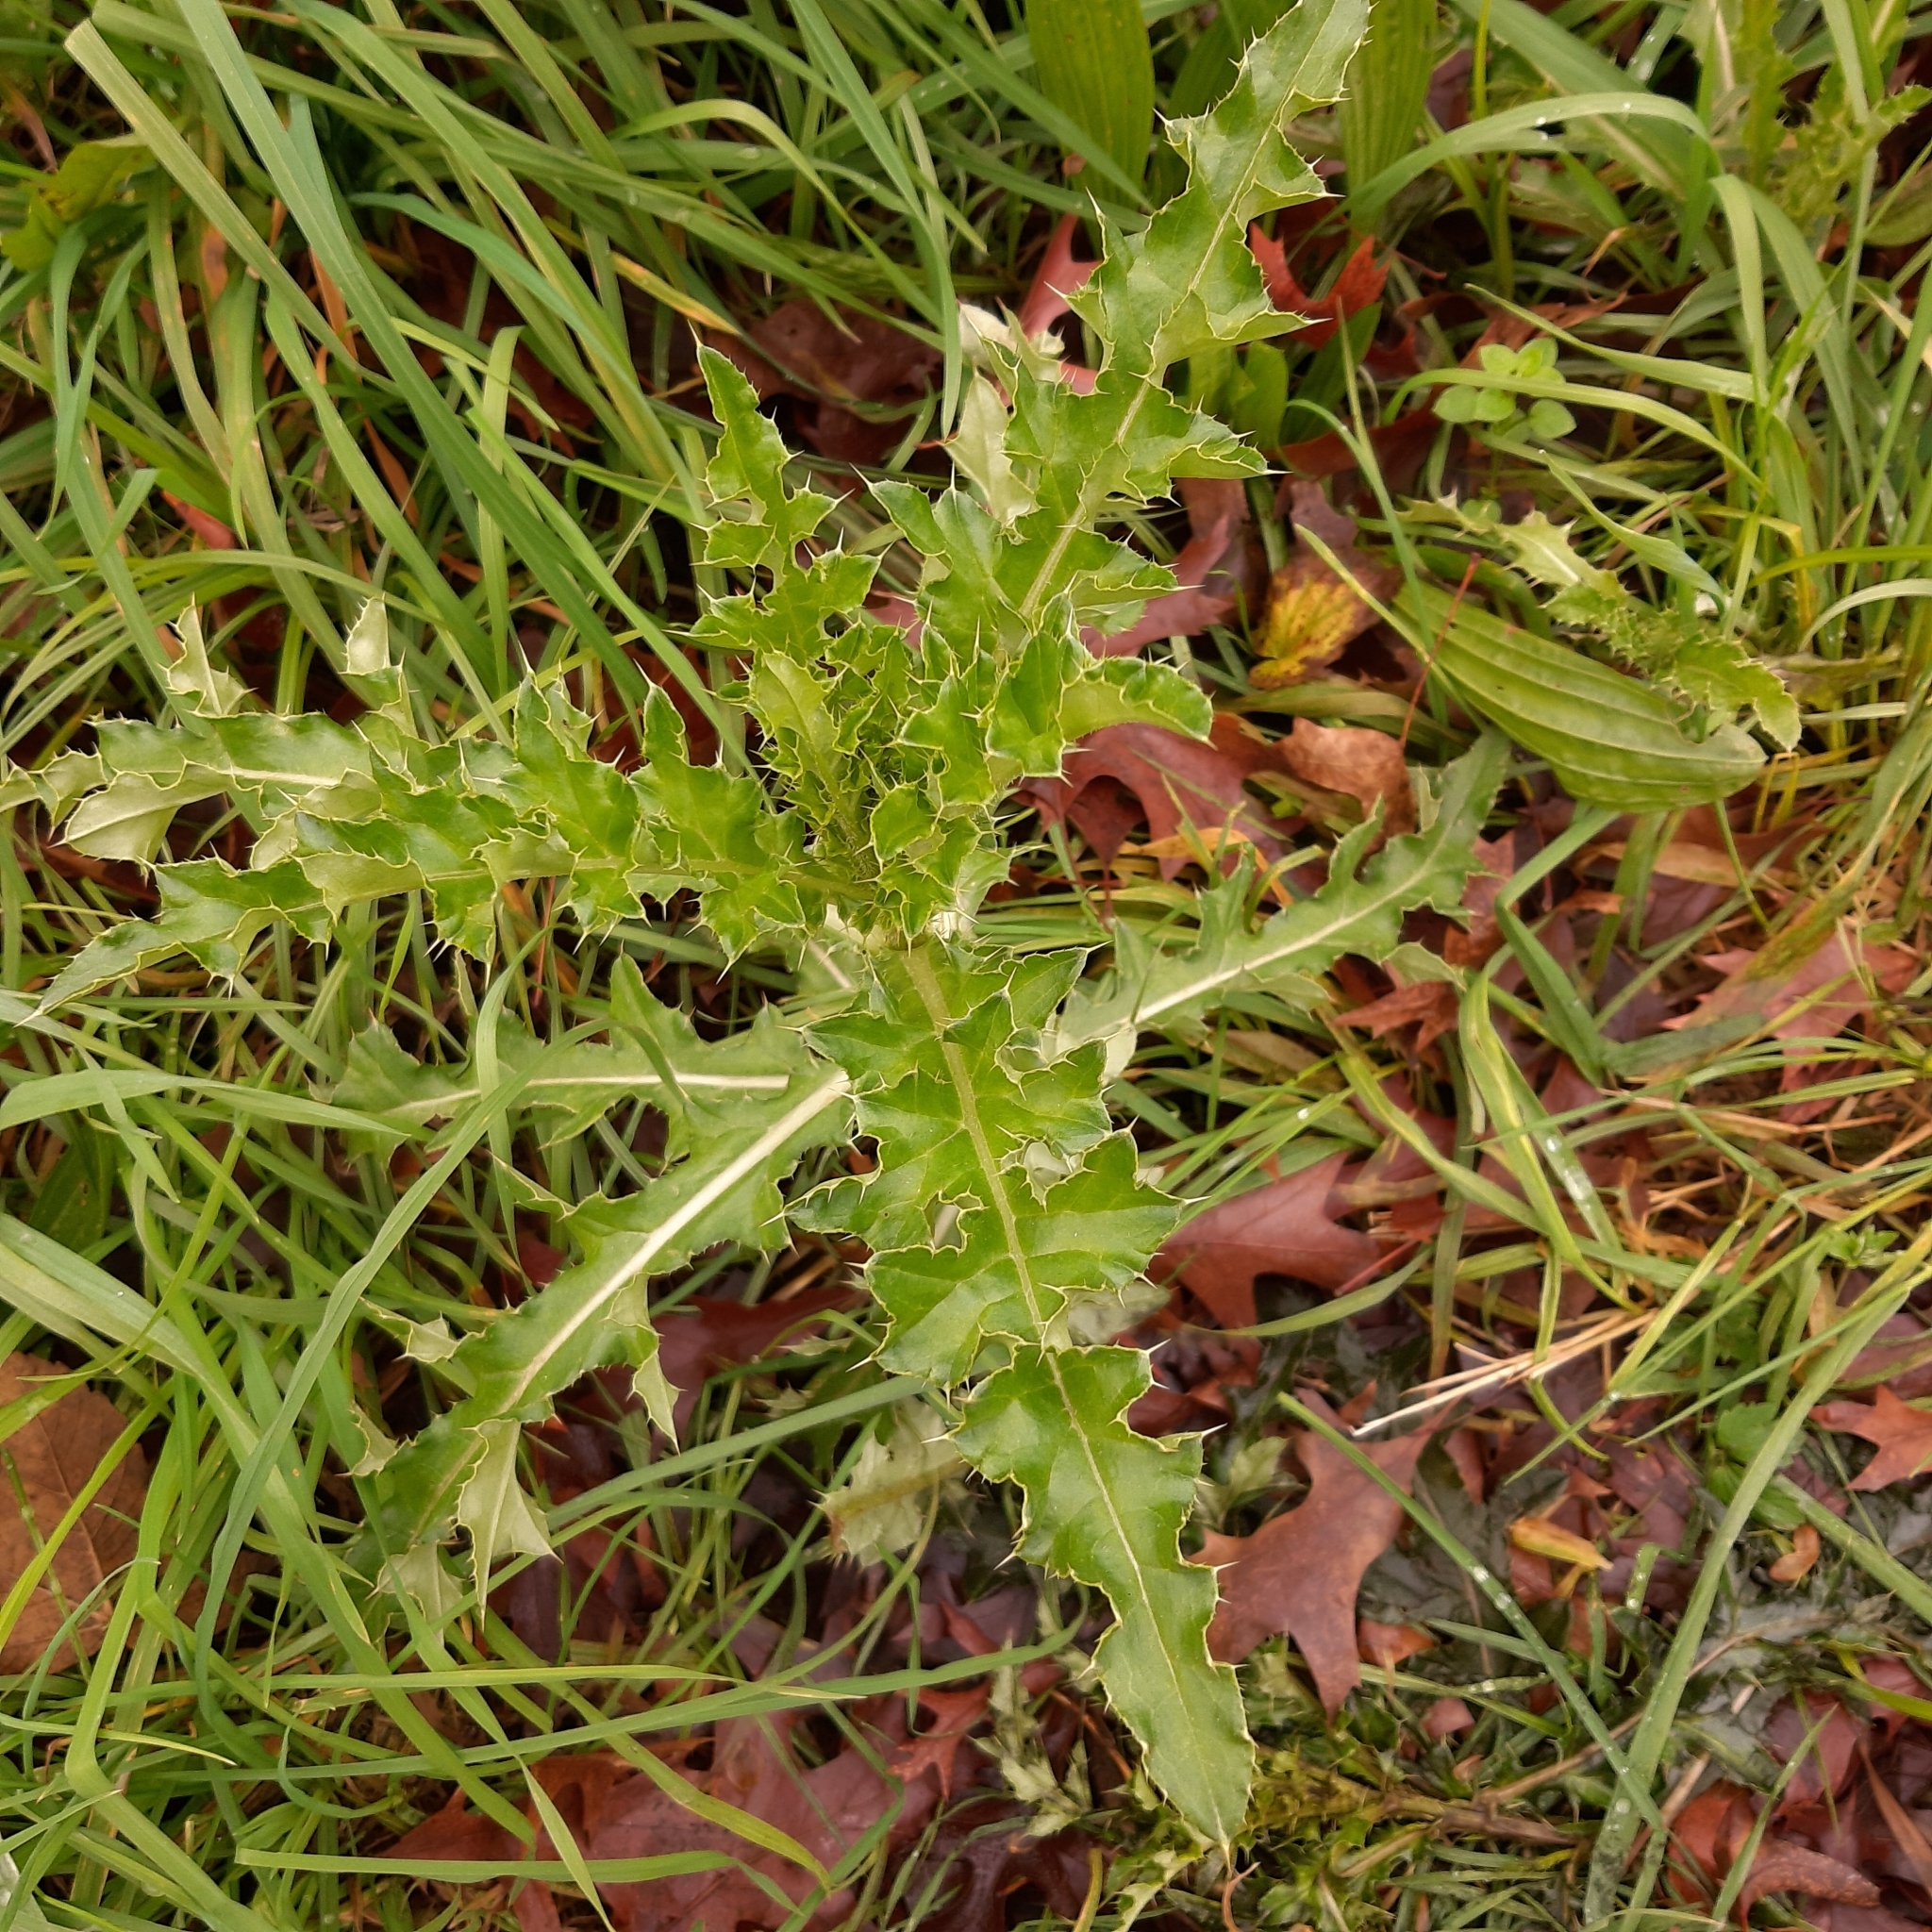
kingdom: Plantae
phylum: Tracheophyta
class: Magnoliopsida
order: Asterales
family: Asteraceae
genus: Cirsium
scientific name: Cirsium arvense
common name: Creeping thistle
